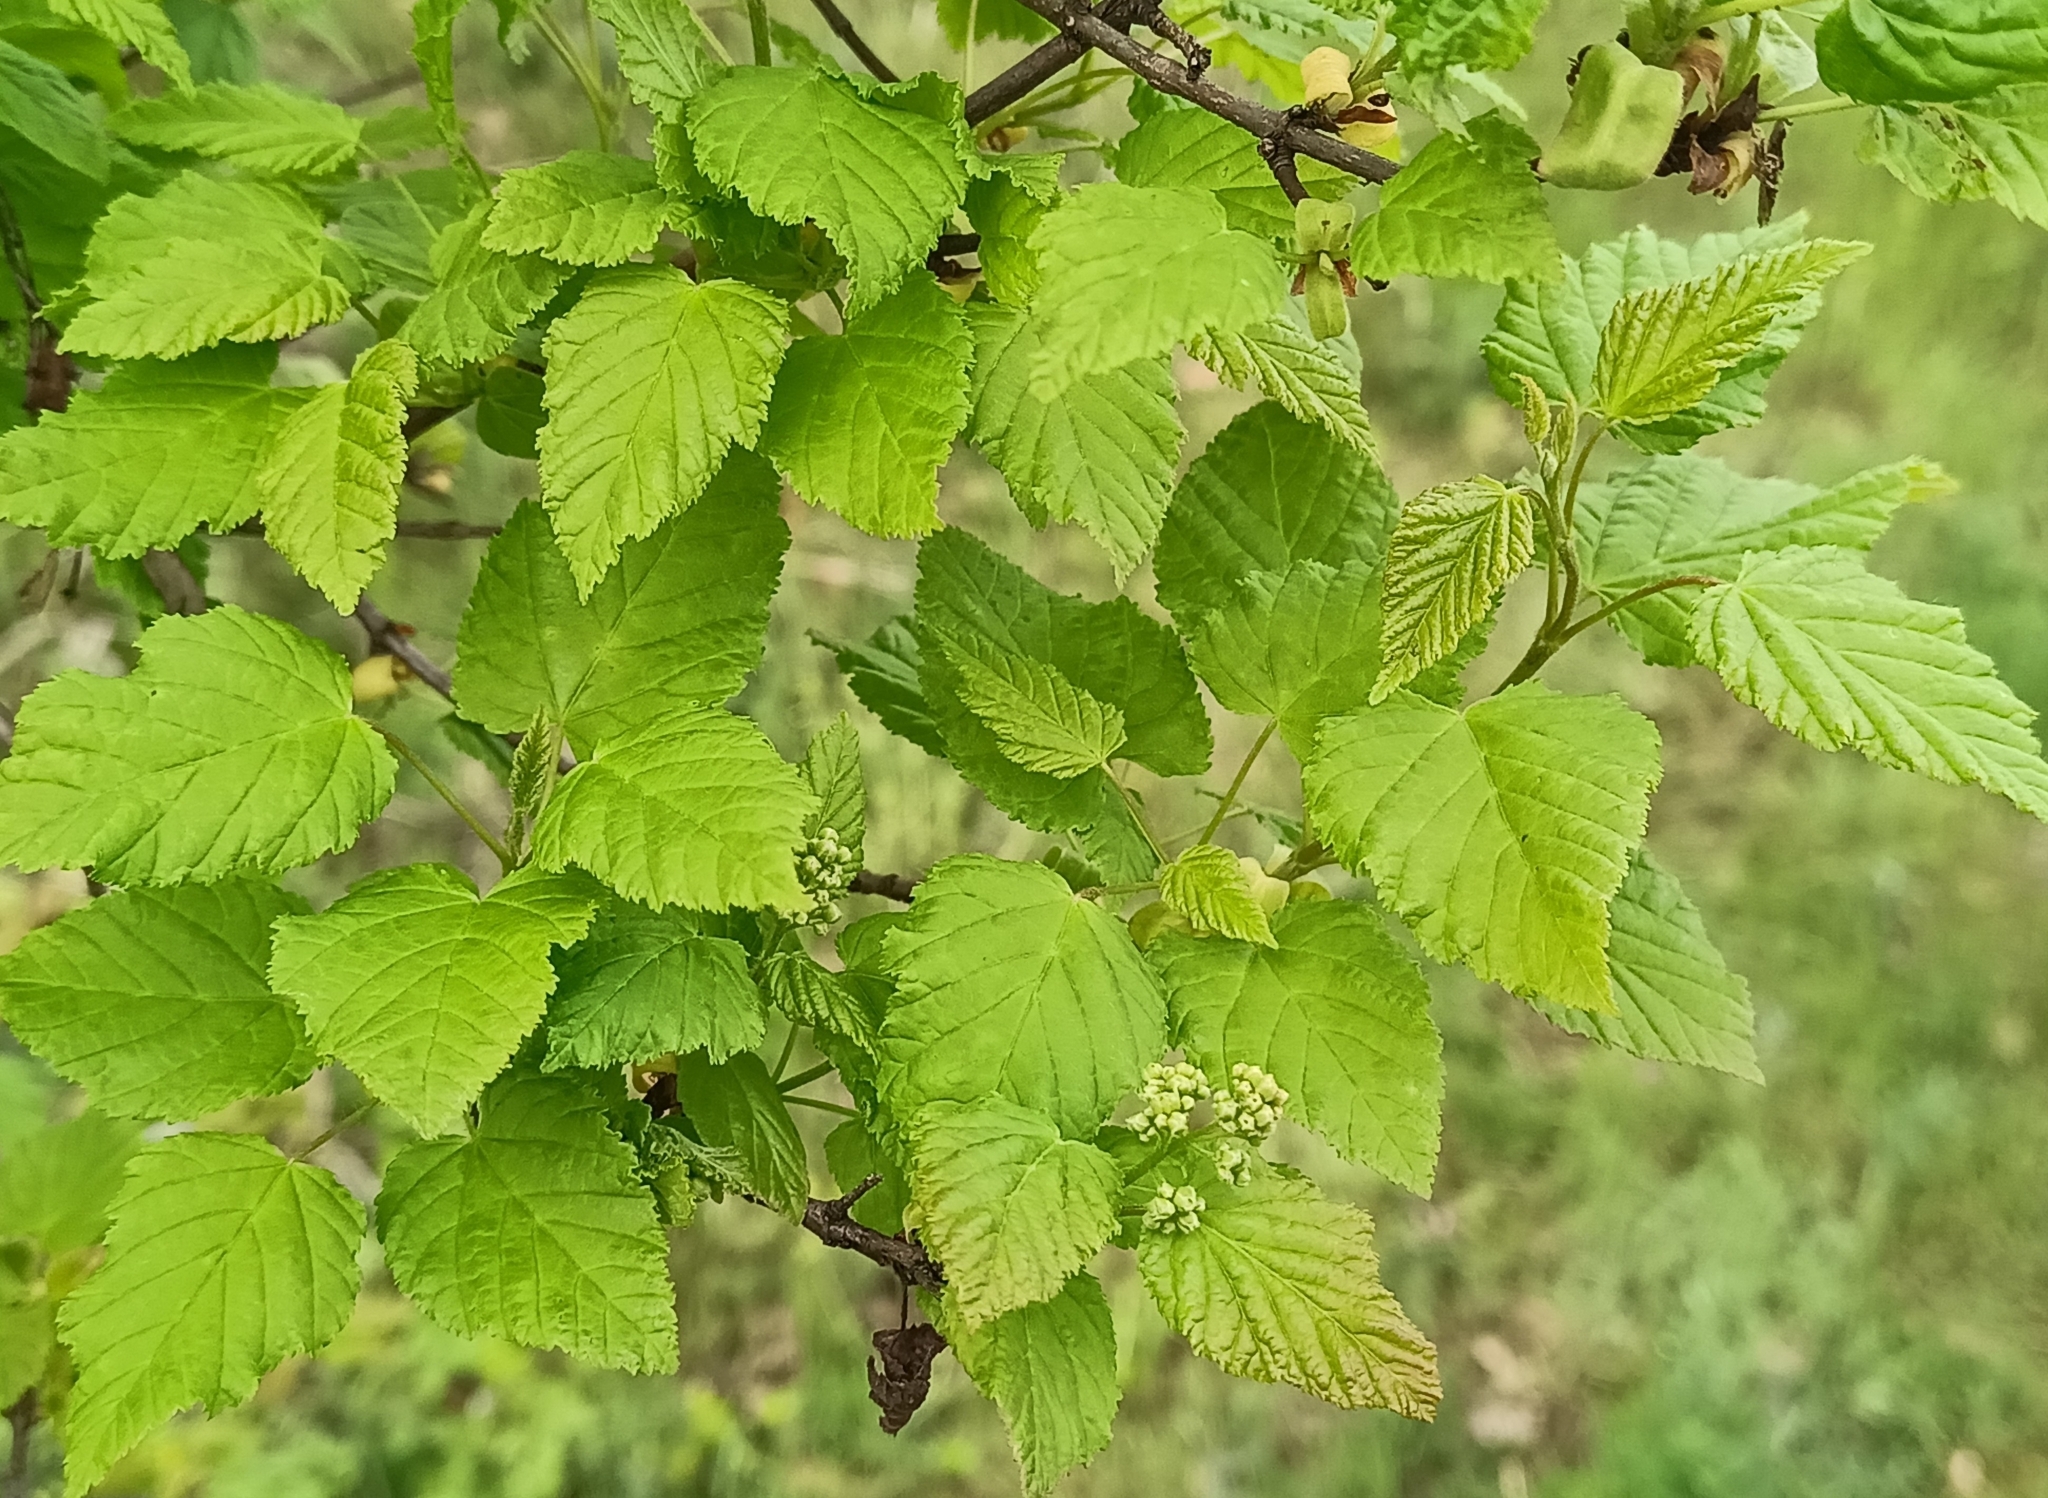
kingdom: Plantae
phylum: Tracheophyta
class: Magnoliopsida
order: Sapindales
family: Sapindaceae
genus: Acer
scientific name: Acer tataricum
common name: Tartar maple
